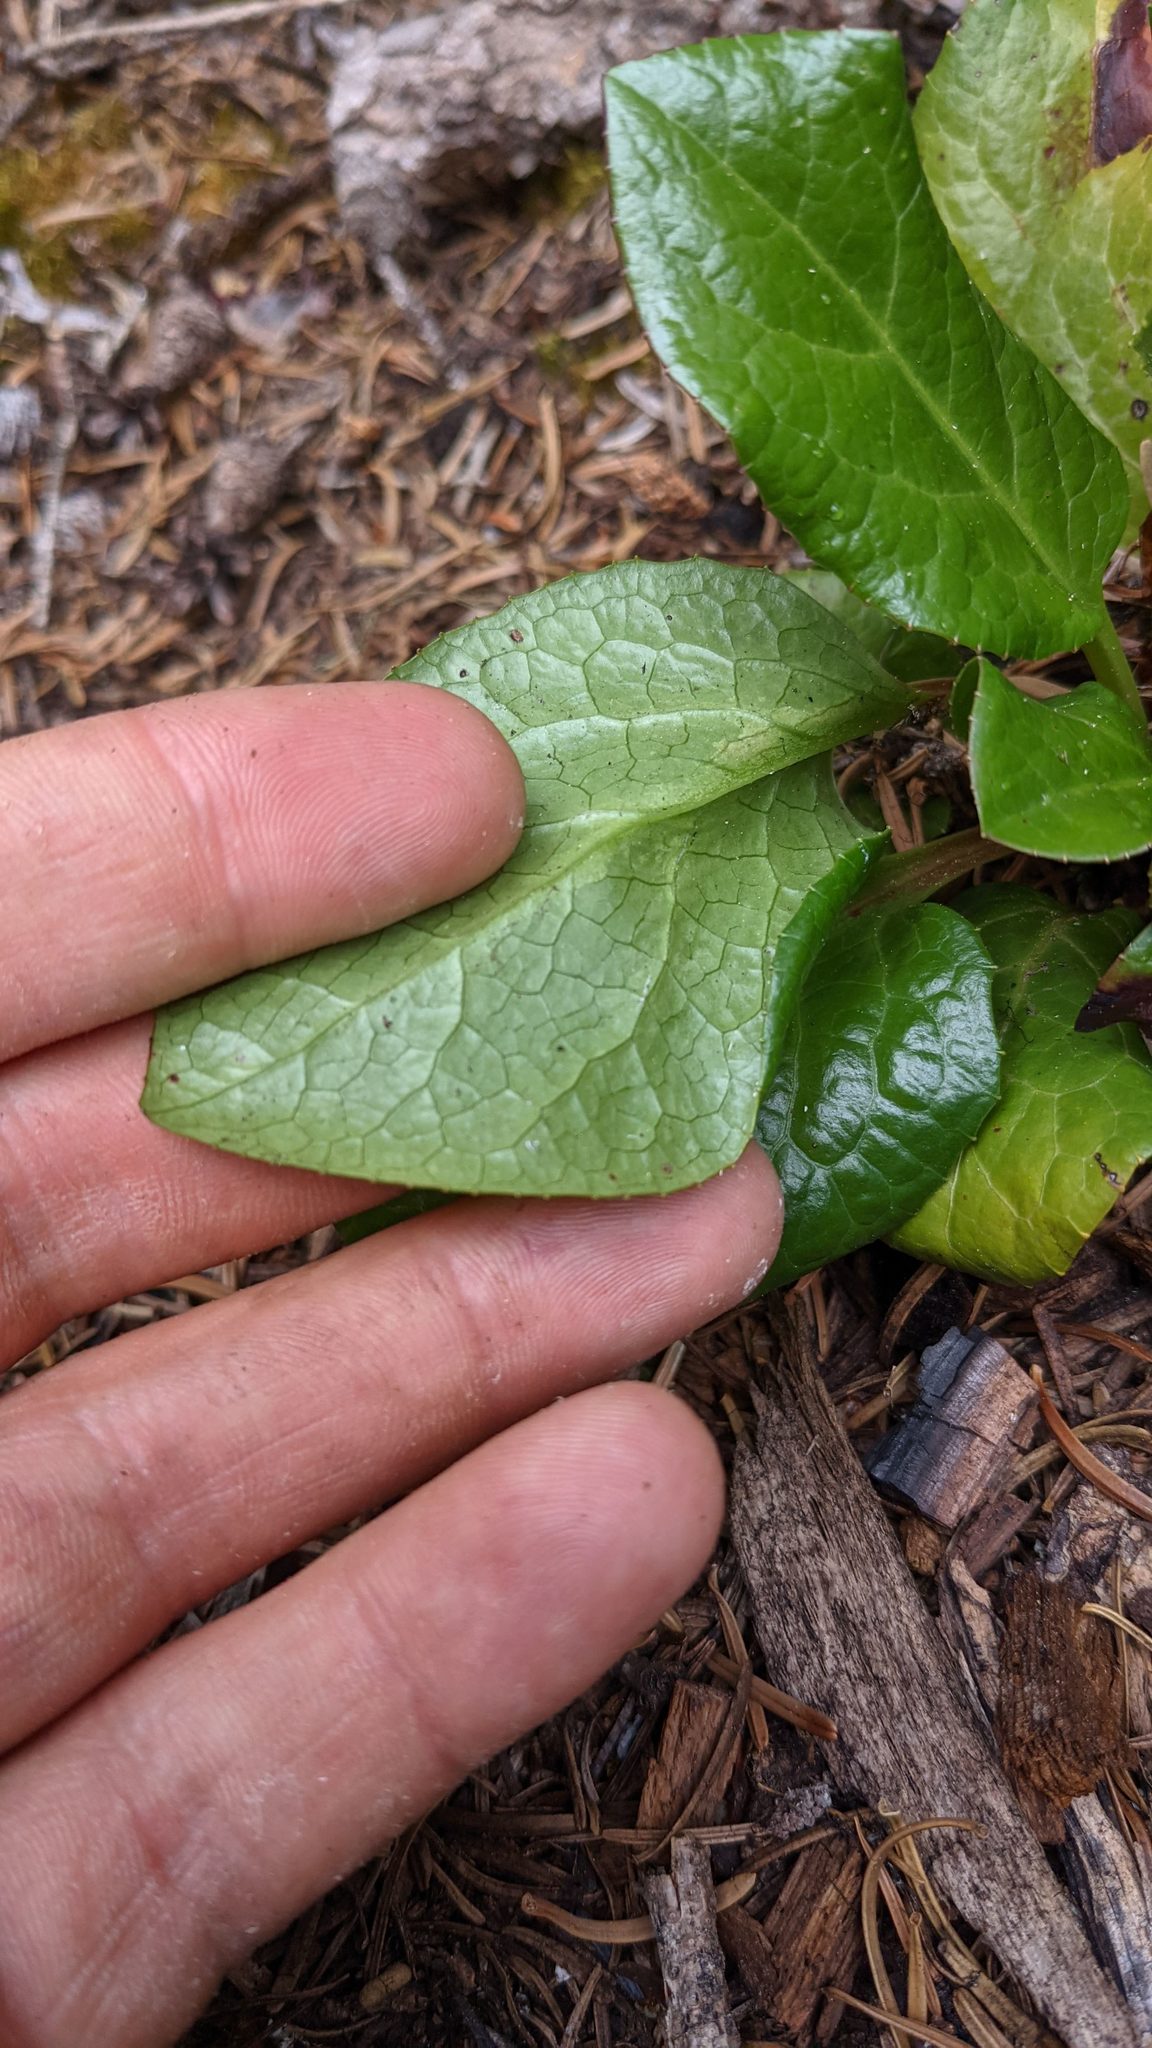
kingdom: Plantae
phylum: Tracheophyta
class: Magnoliopsida
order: Ericales
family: Ericaceae
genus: Pyrola
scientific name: Pyrola asarifolia
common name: Bog wintergreen
